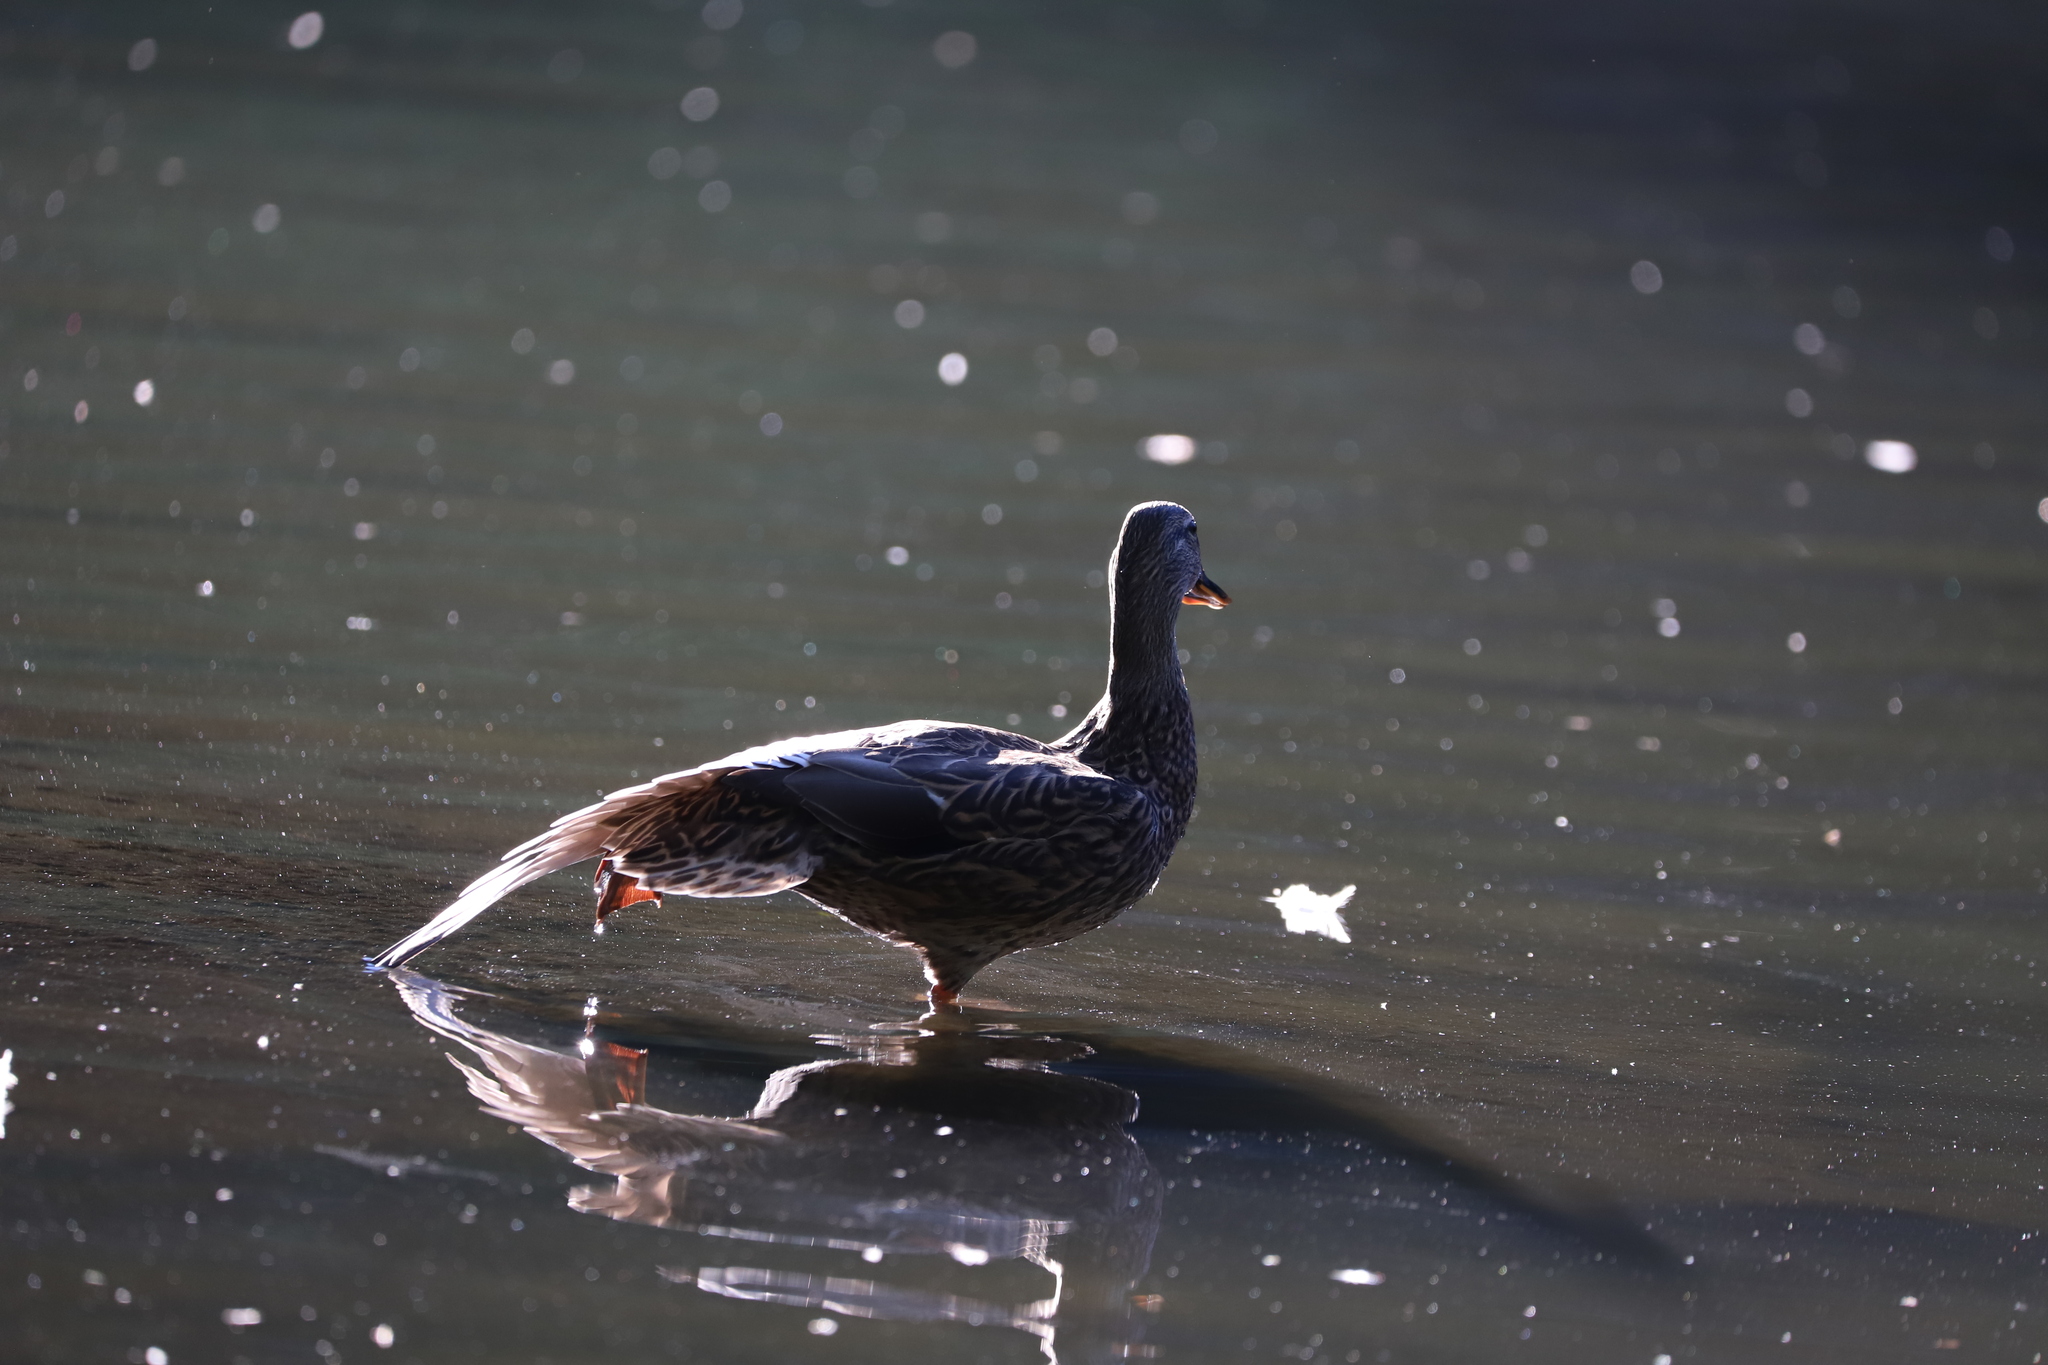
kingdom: Animalia
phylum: Chordata
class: Aves
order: Anseriformes
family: Anatidae
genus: Anas
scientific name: Anas platyrhynchos
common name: Mallard
